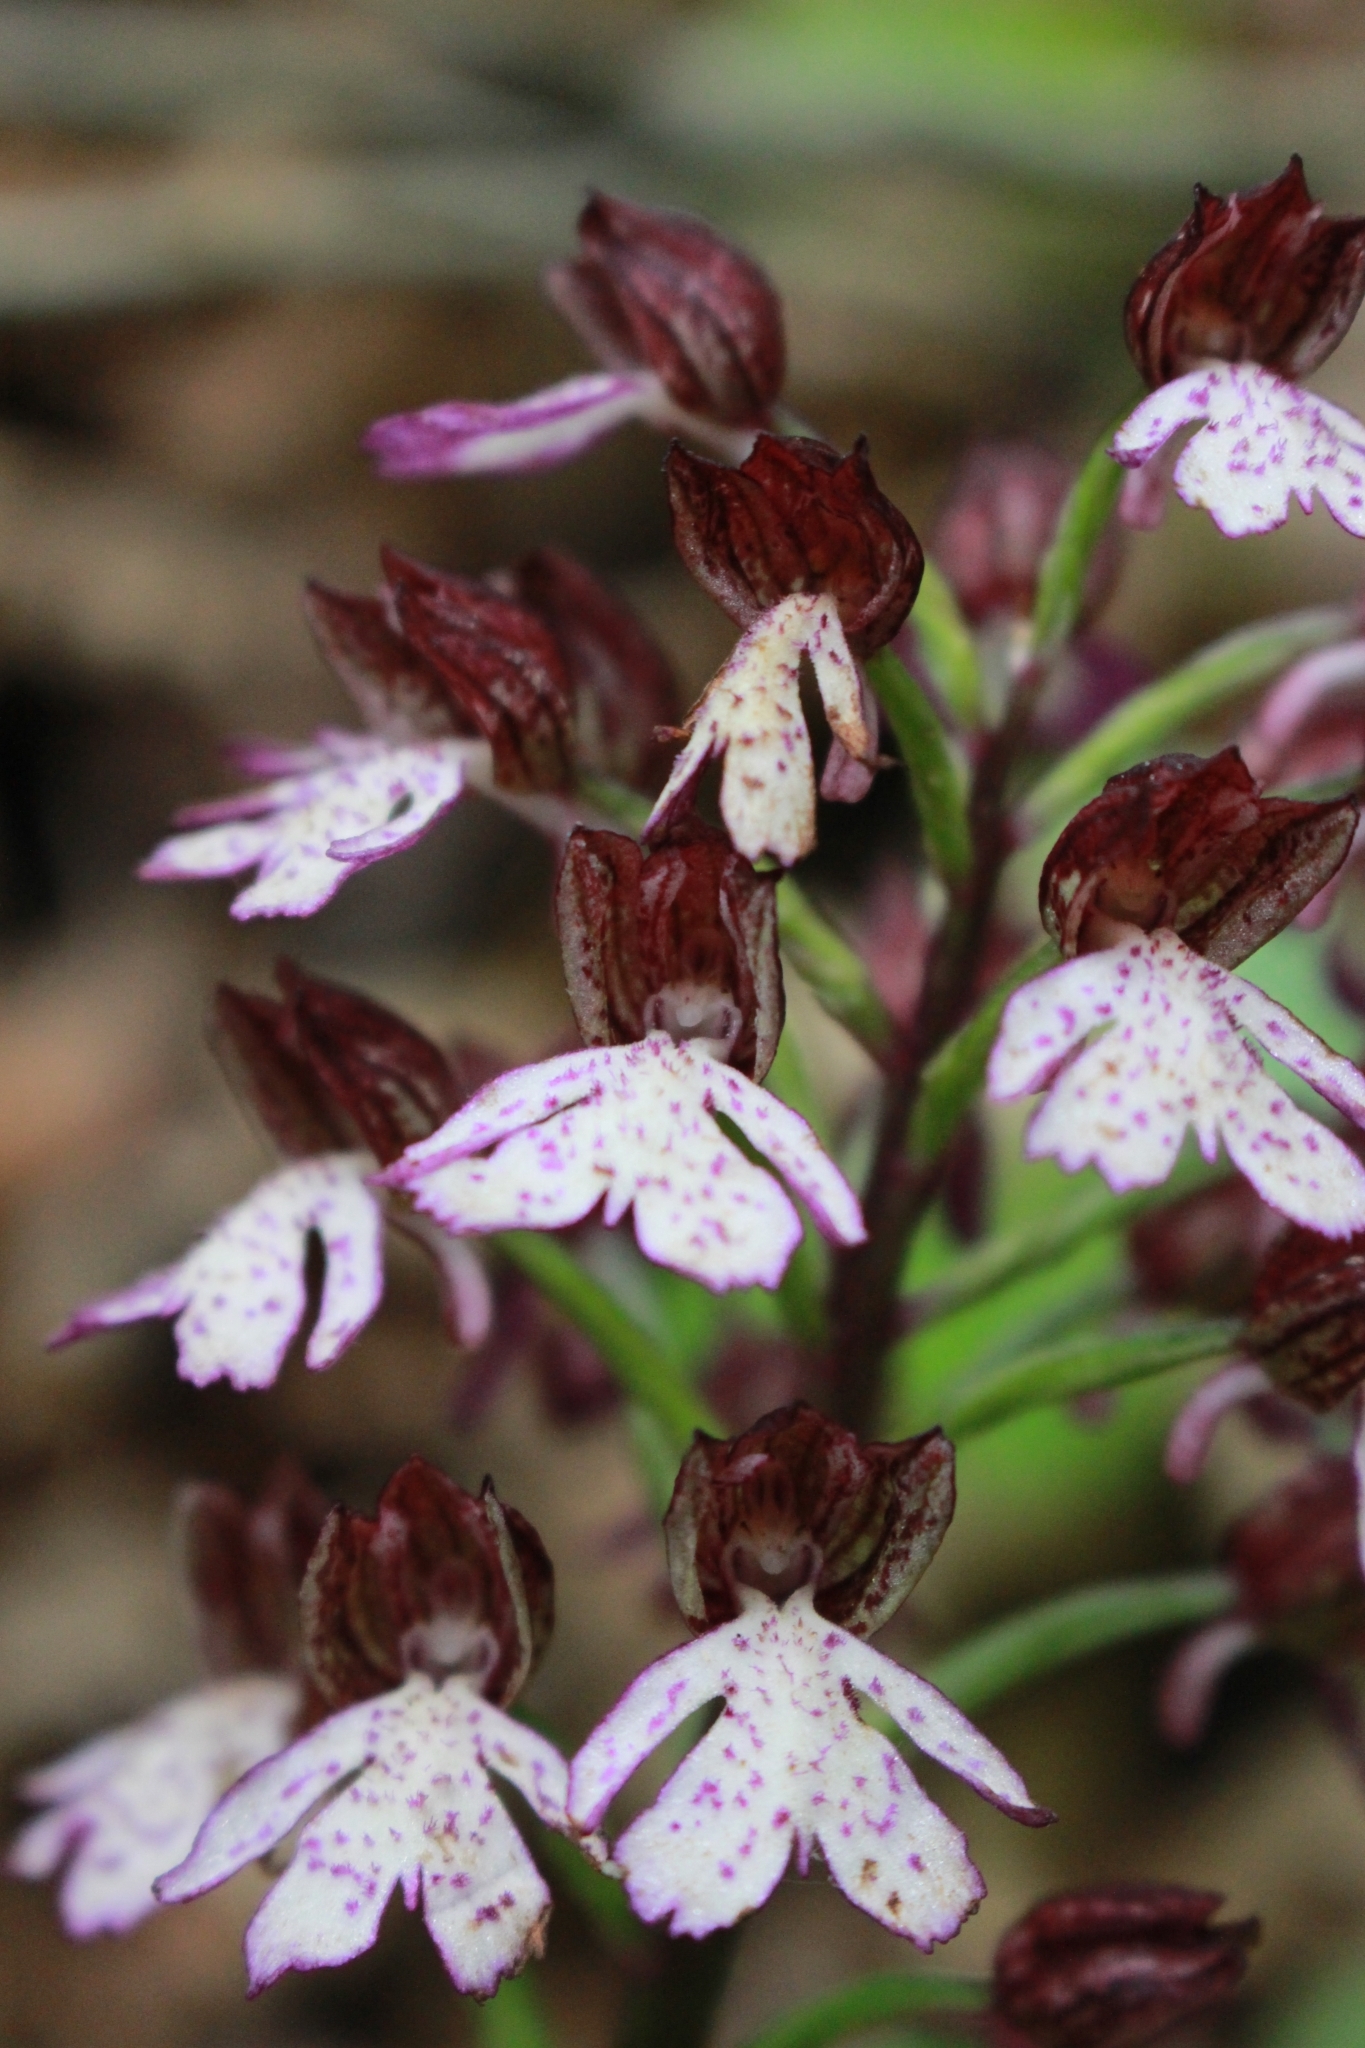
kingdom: Plantae
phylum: Tracheophyta
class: Liliopsida
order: Asparagales
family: Orchidaceae
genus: Orchis
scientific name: Orchis purpurea
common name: Lady orchid
